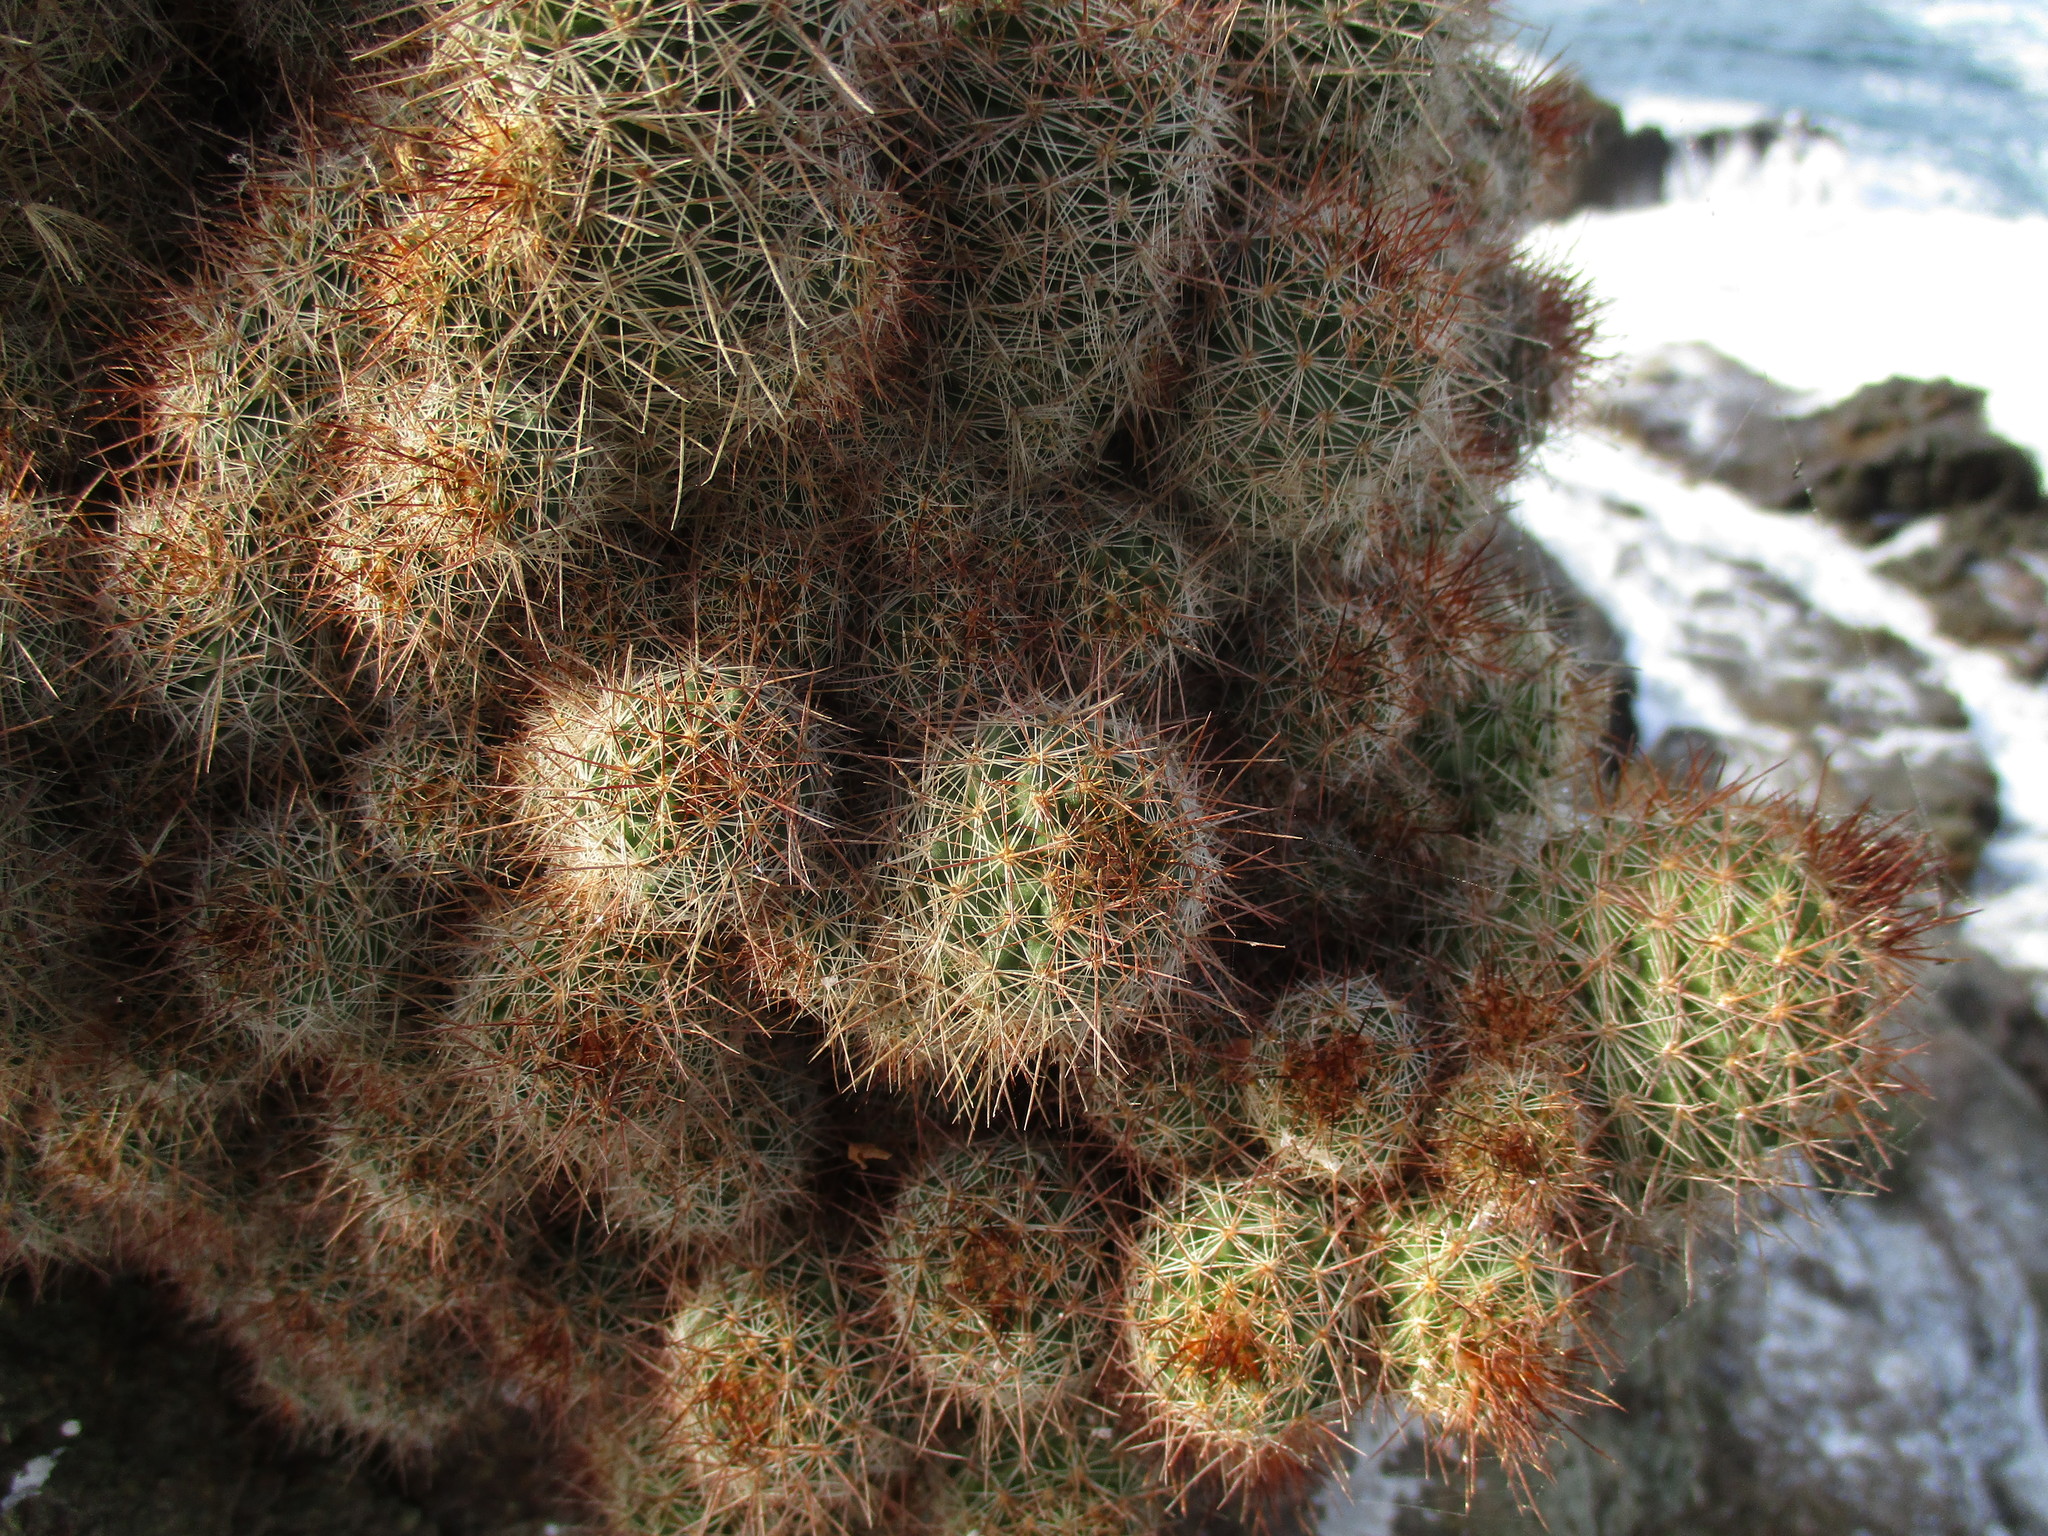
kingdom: Plantae
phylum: Tracheophyta
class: Magnoliopsida
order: Caryophyllales
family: Cactaceae
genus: Cochemiea
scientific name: Cochemiea mazatlanensis
